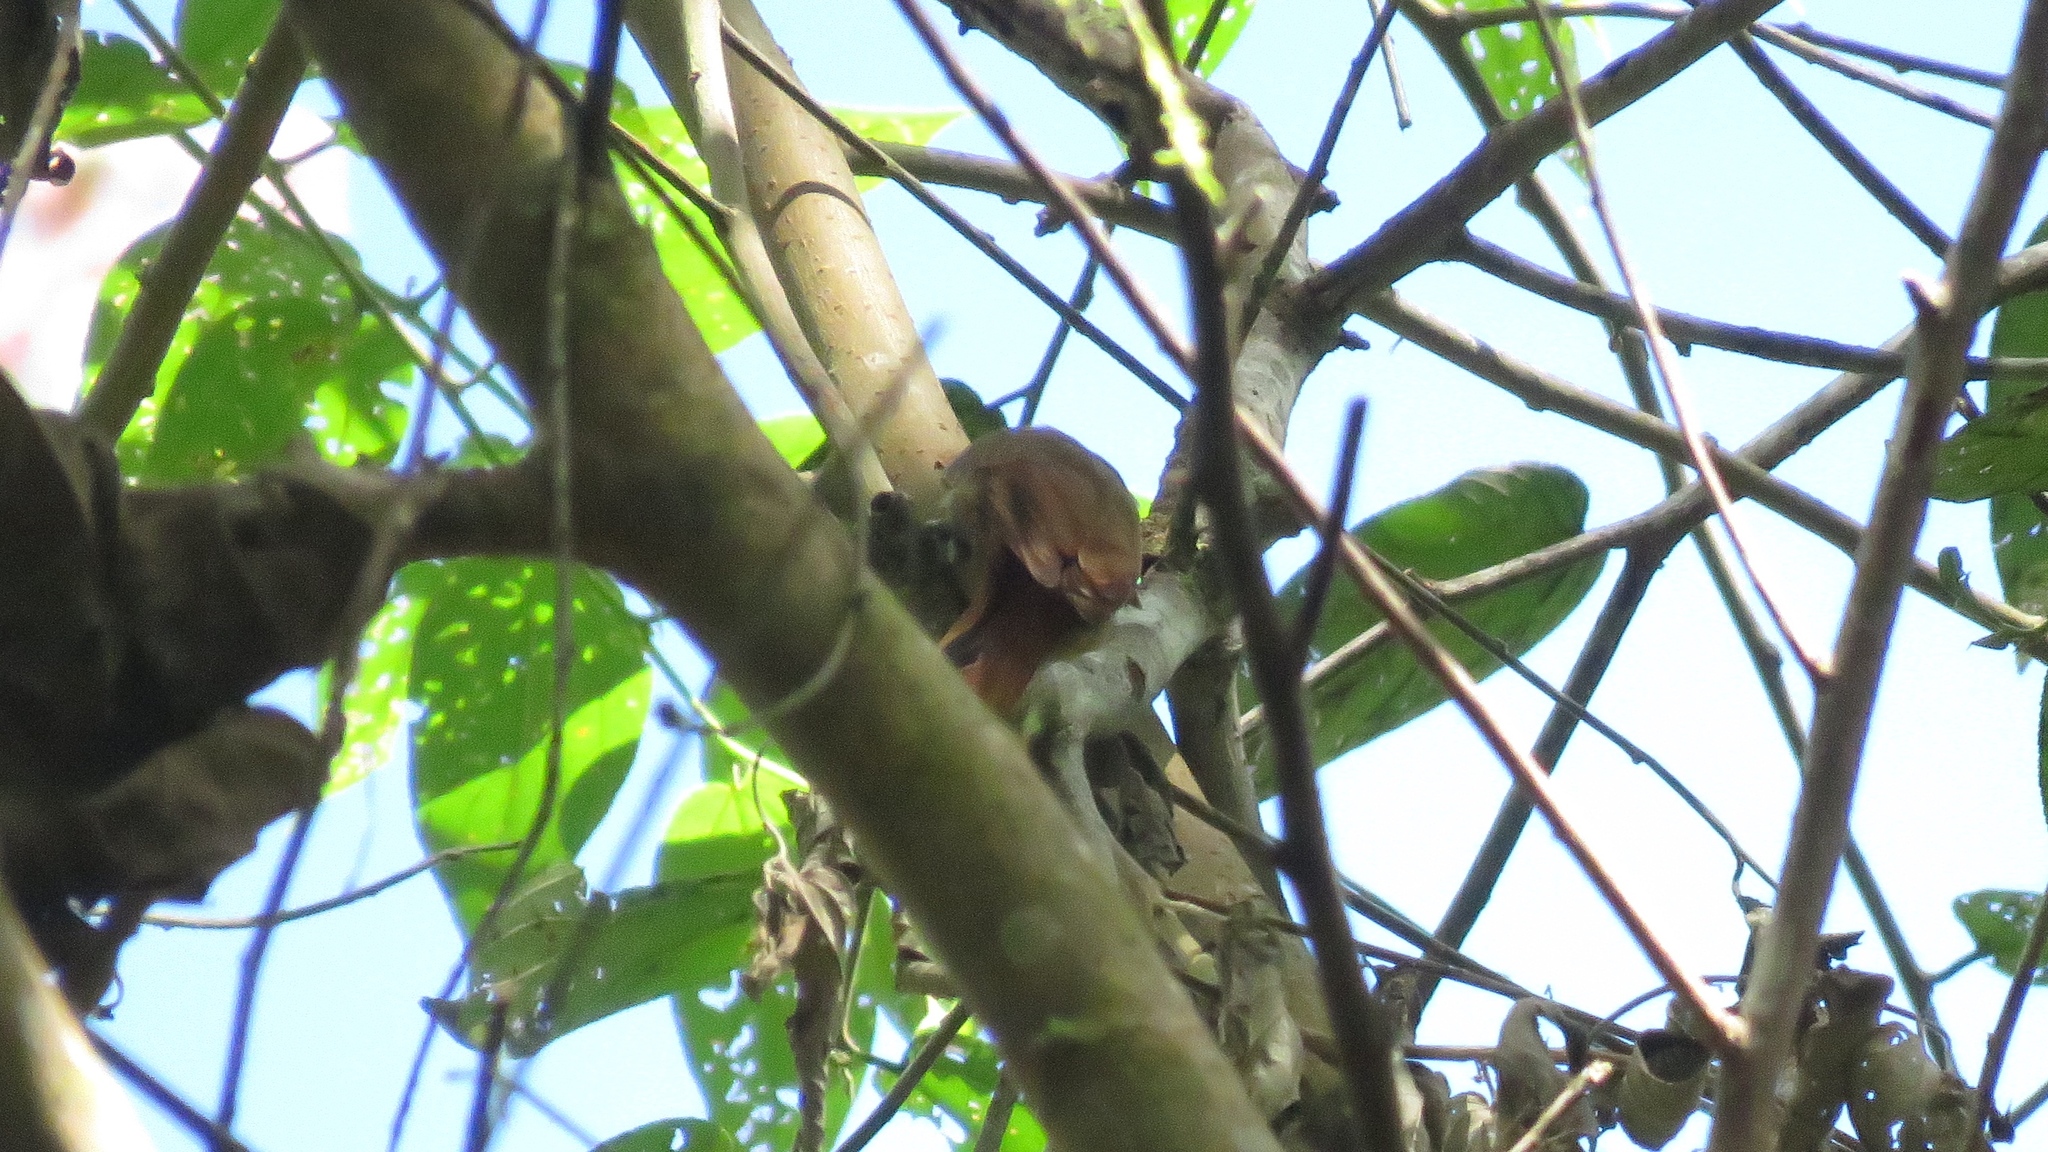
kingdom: Animalia
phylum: Chordata
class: Aves
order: Passeriformes
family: Furnariidae
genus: Xenops
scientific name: Xenops minutus
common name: Plain xenops
